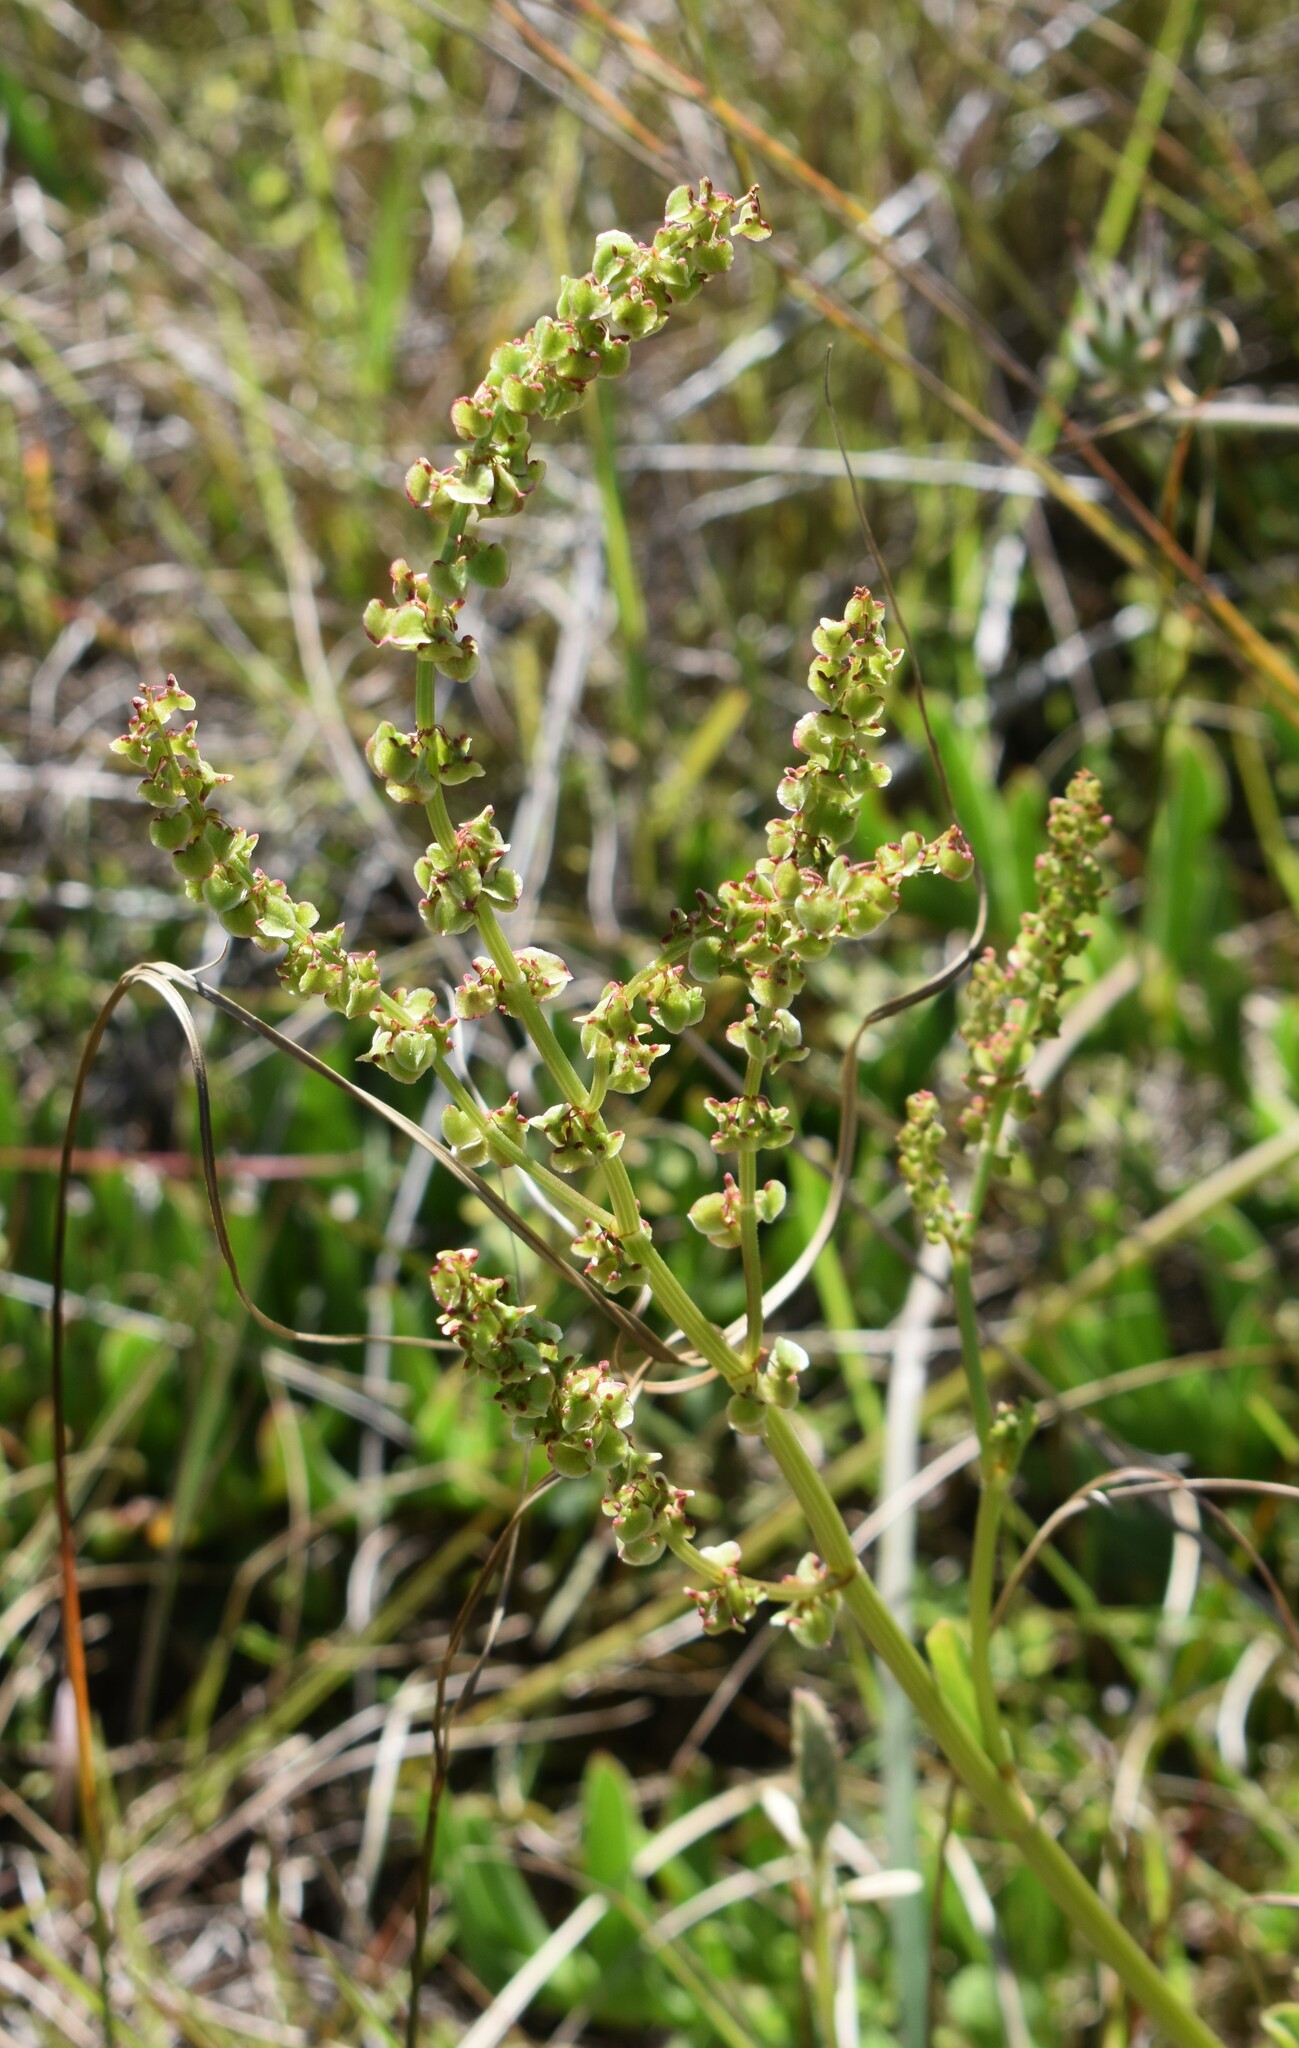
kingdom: Plantae
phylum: Tracheophyta
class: Magnoliopsida
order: Caryophyllales
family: Polygonaceae
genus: Rumex
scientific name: Rumex acetosella
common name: Common sheep sorrel
